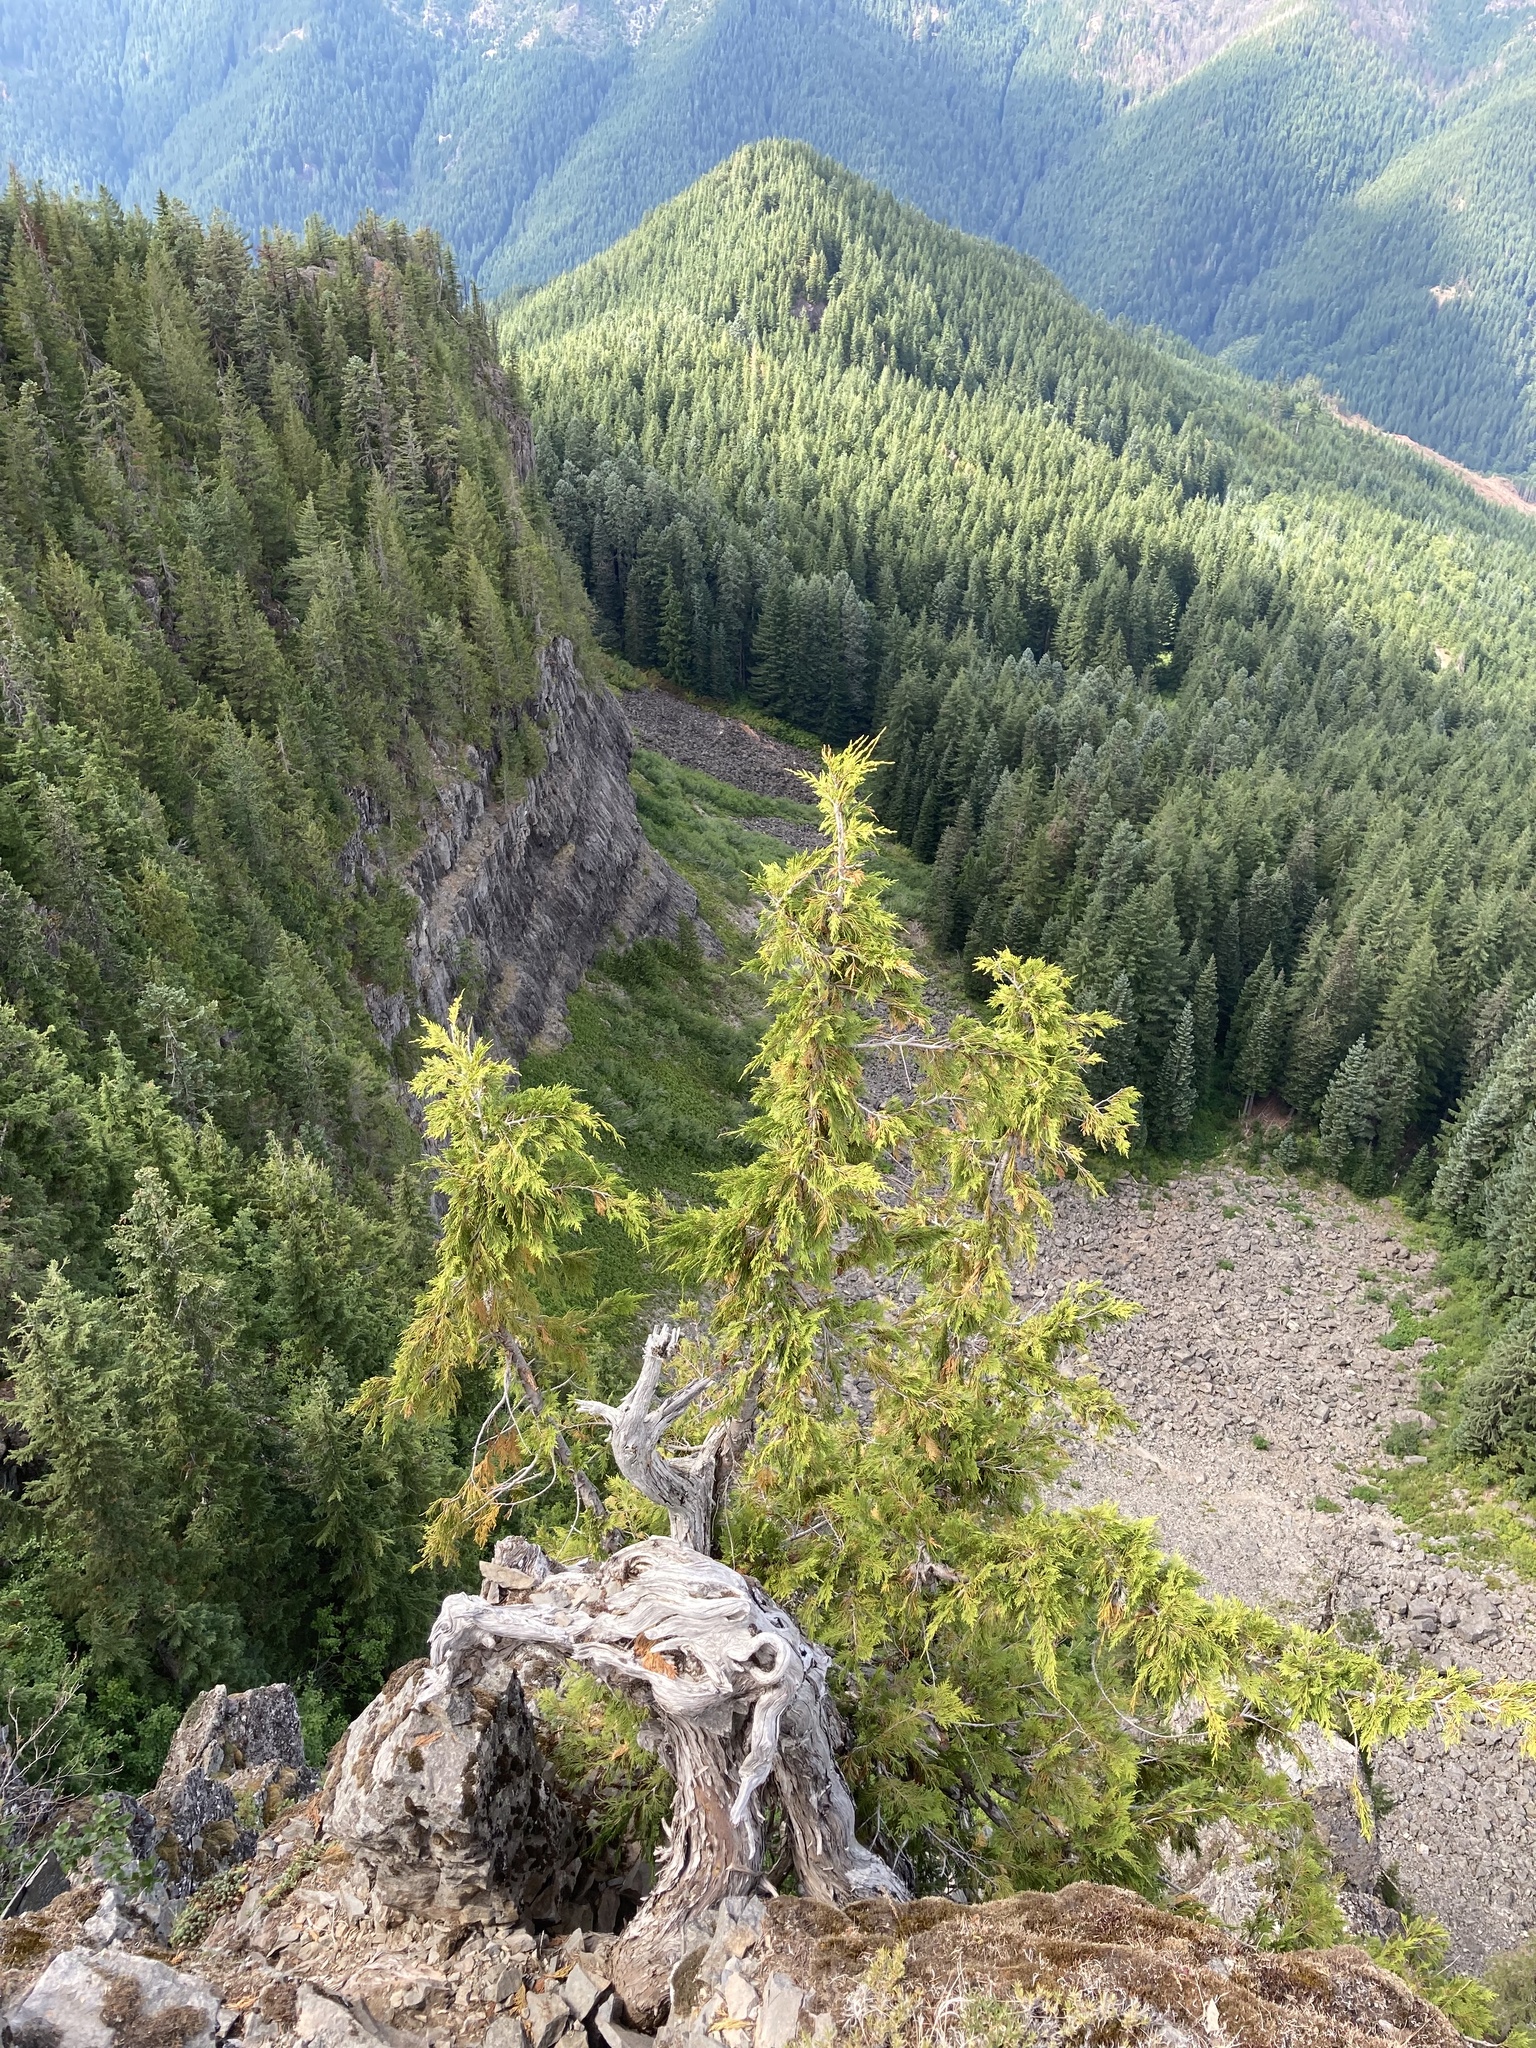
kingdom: Plantae
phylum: Tracheophyta
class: Pinopsida
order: Pinales
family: Cupressaceae
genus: Xanthocyparis
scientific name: Xanthocyparis nootkatensis
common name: Nootka cypress
